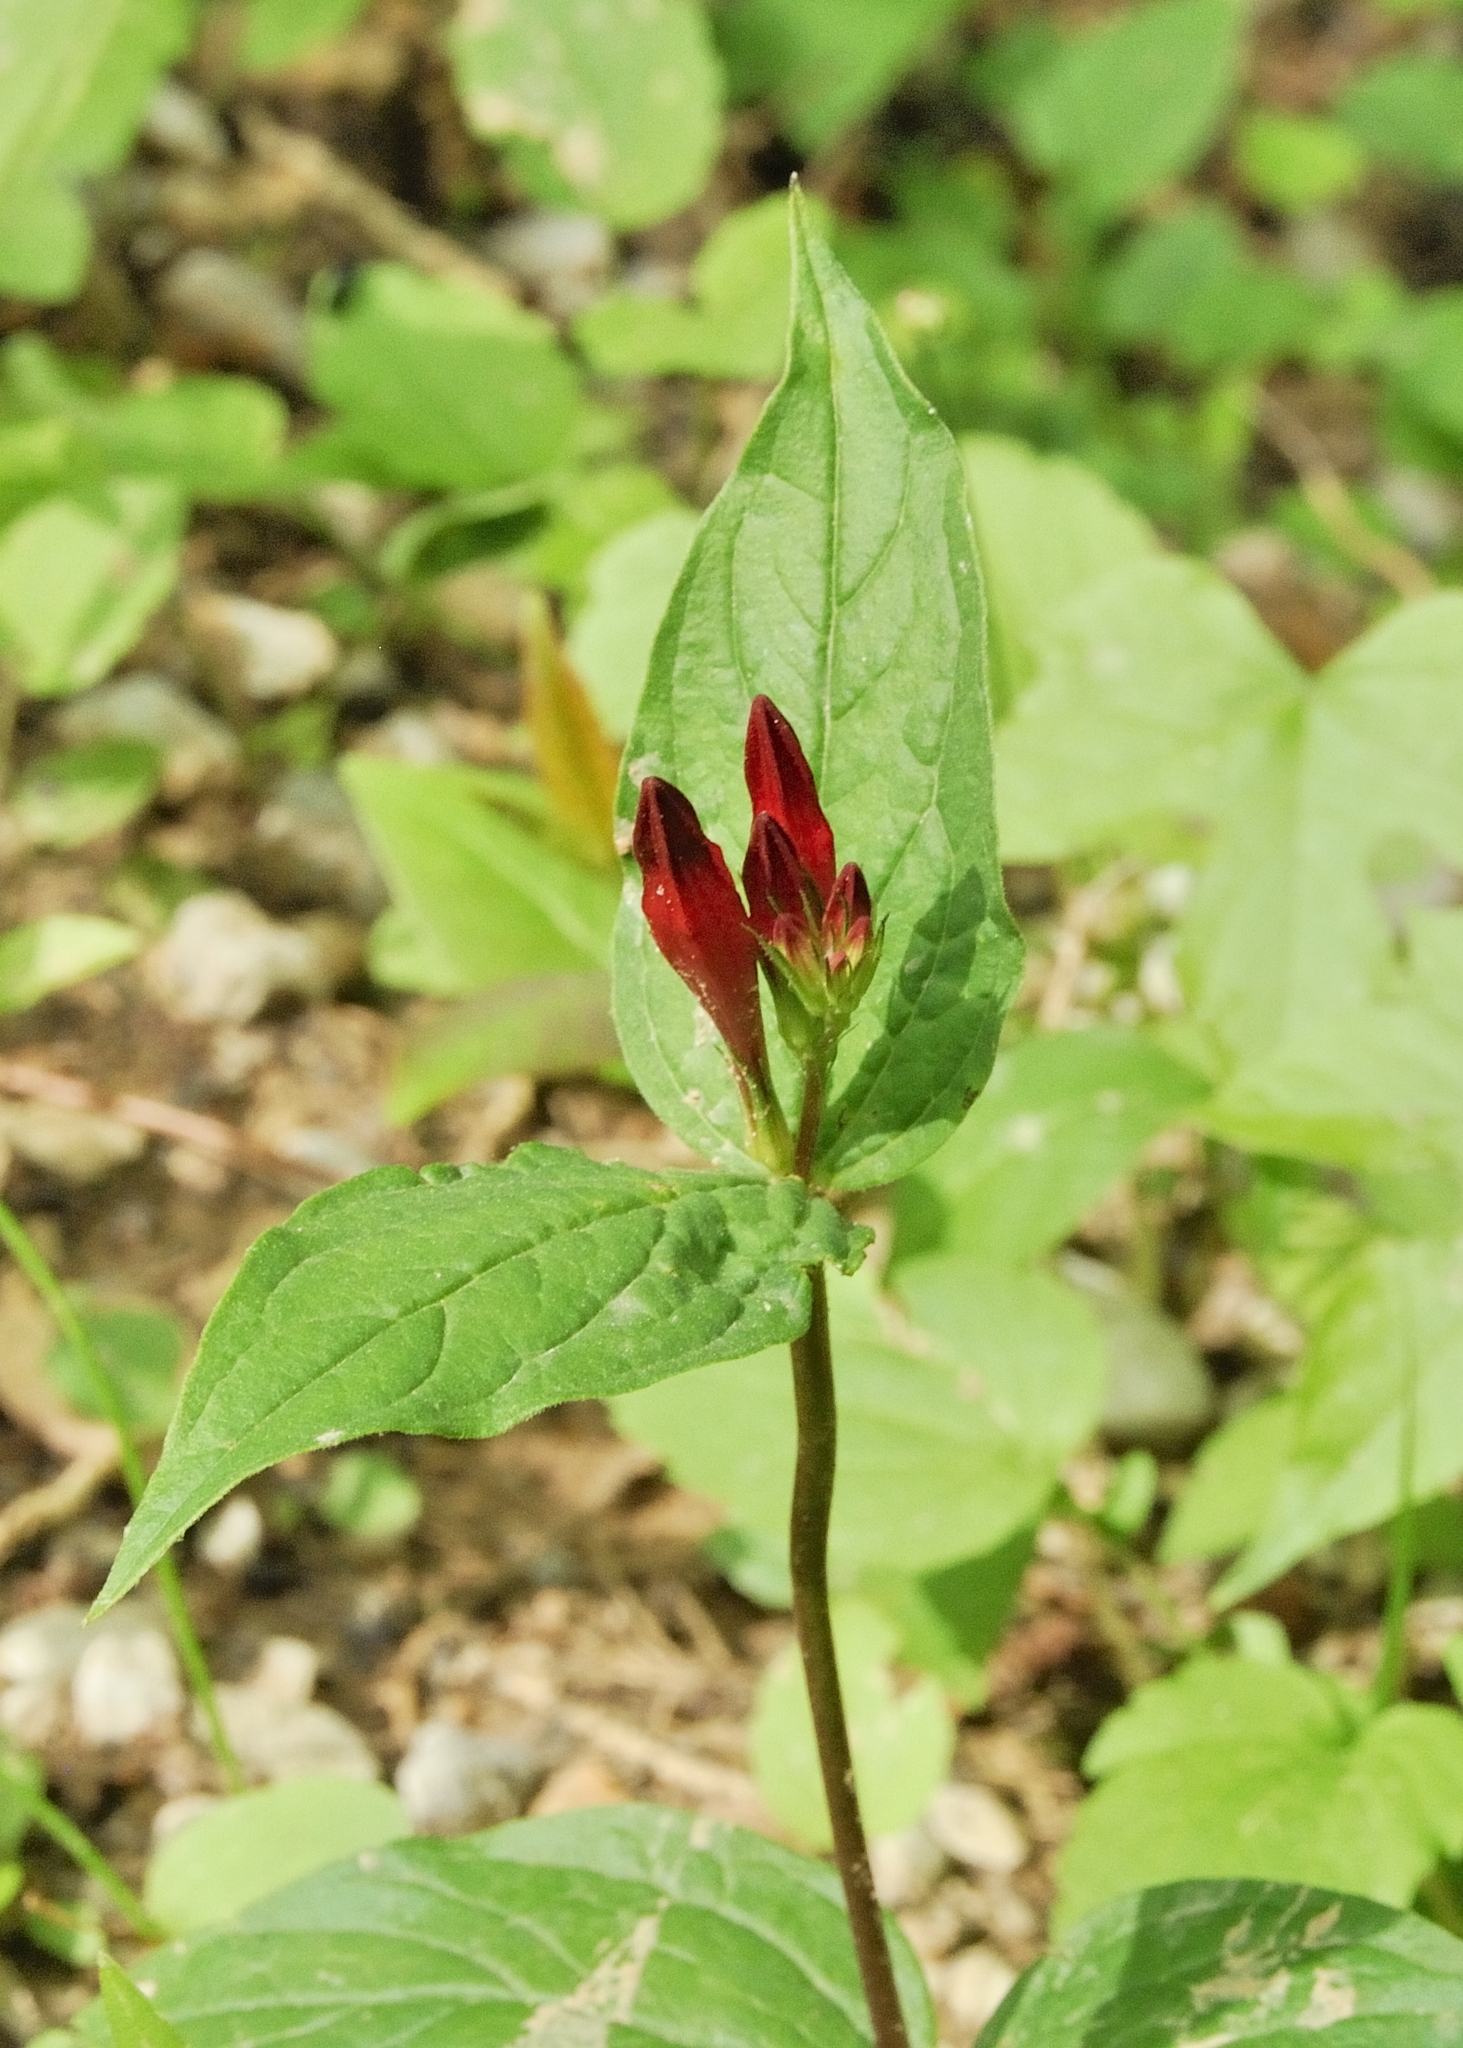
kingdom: Plantae
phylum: Tracheophyta
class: Magnoliopsida
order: Gentianales
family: Loganiaceae
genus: Spigelia
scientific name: Spigelia marilandica
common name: Indian-pink
